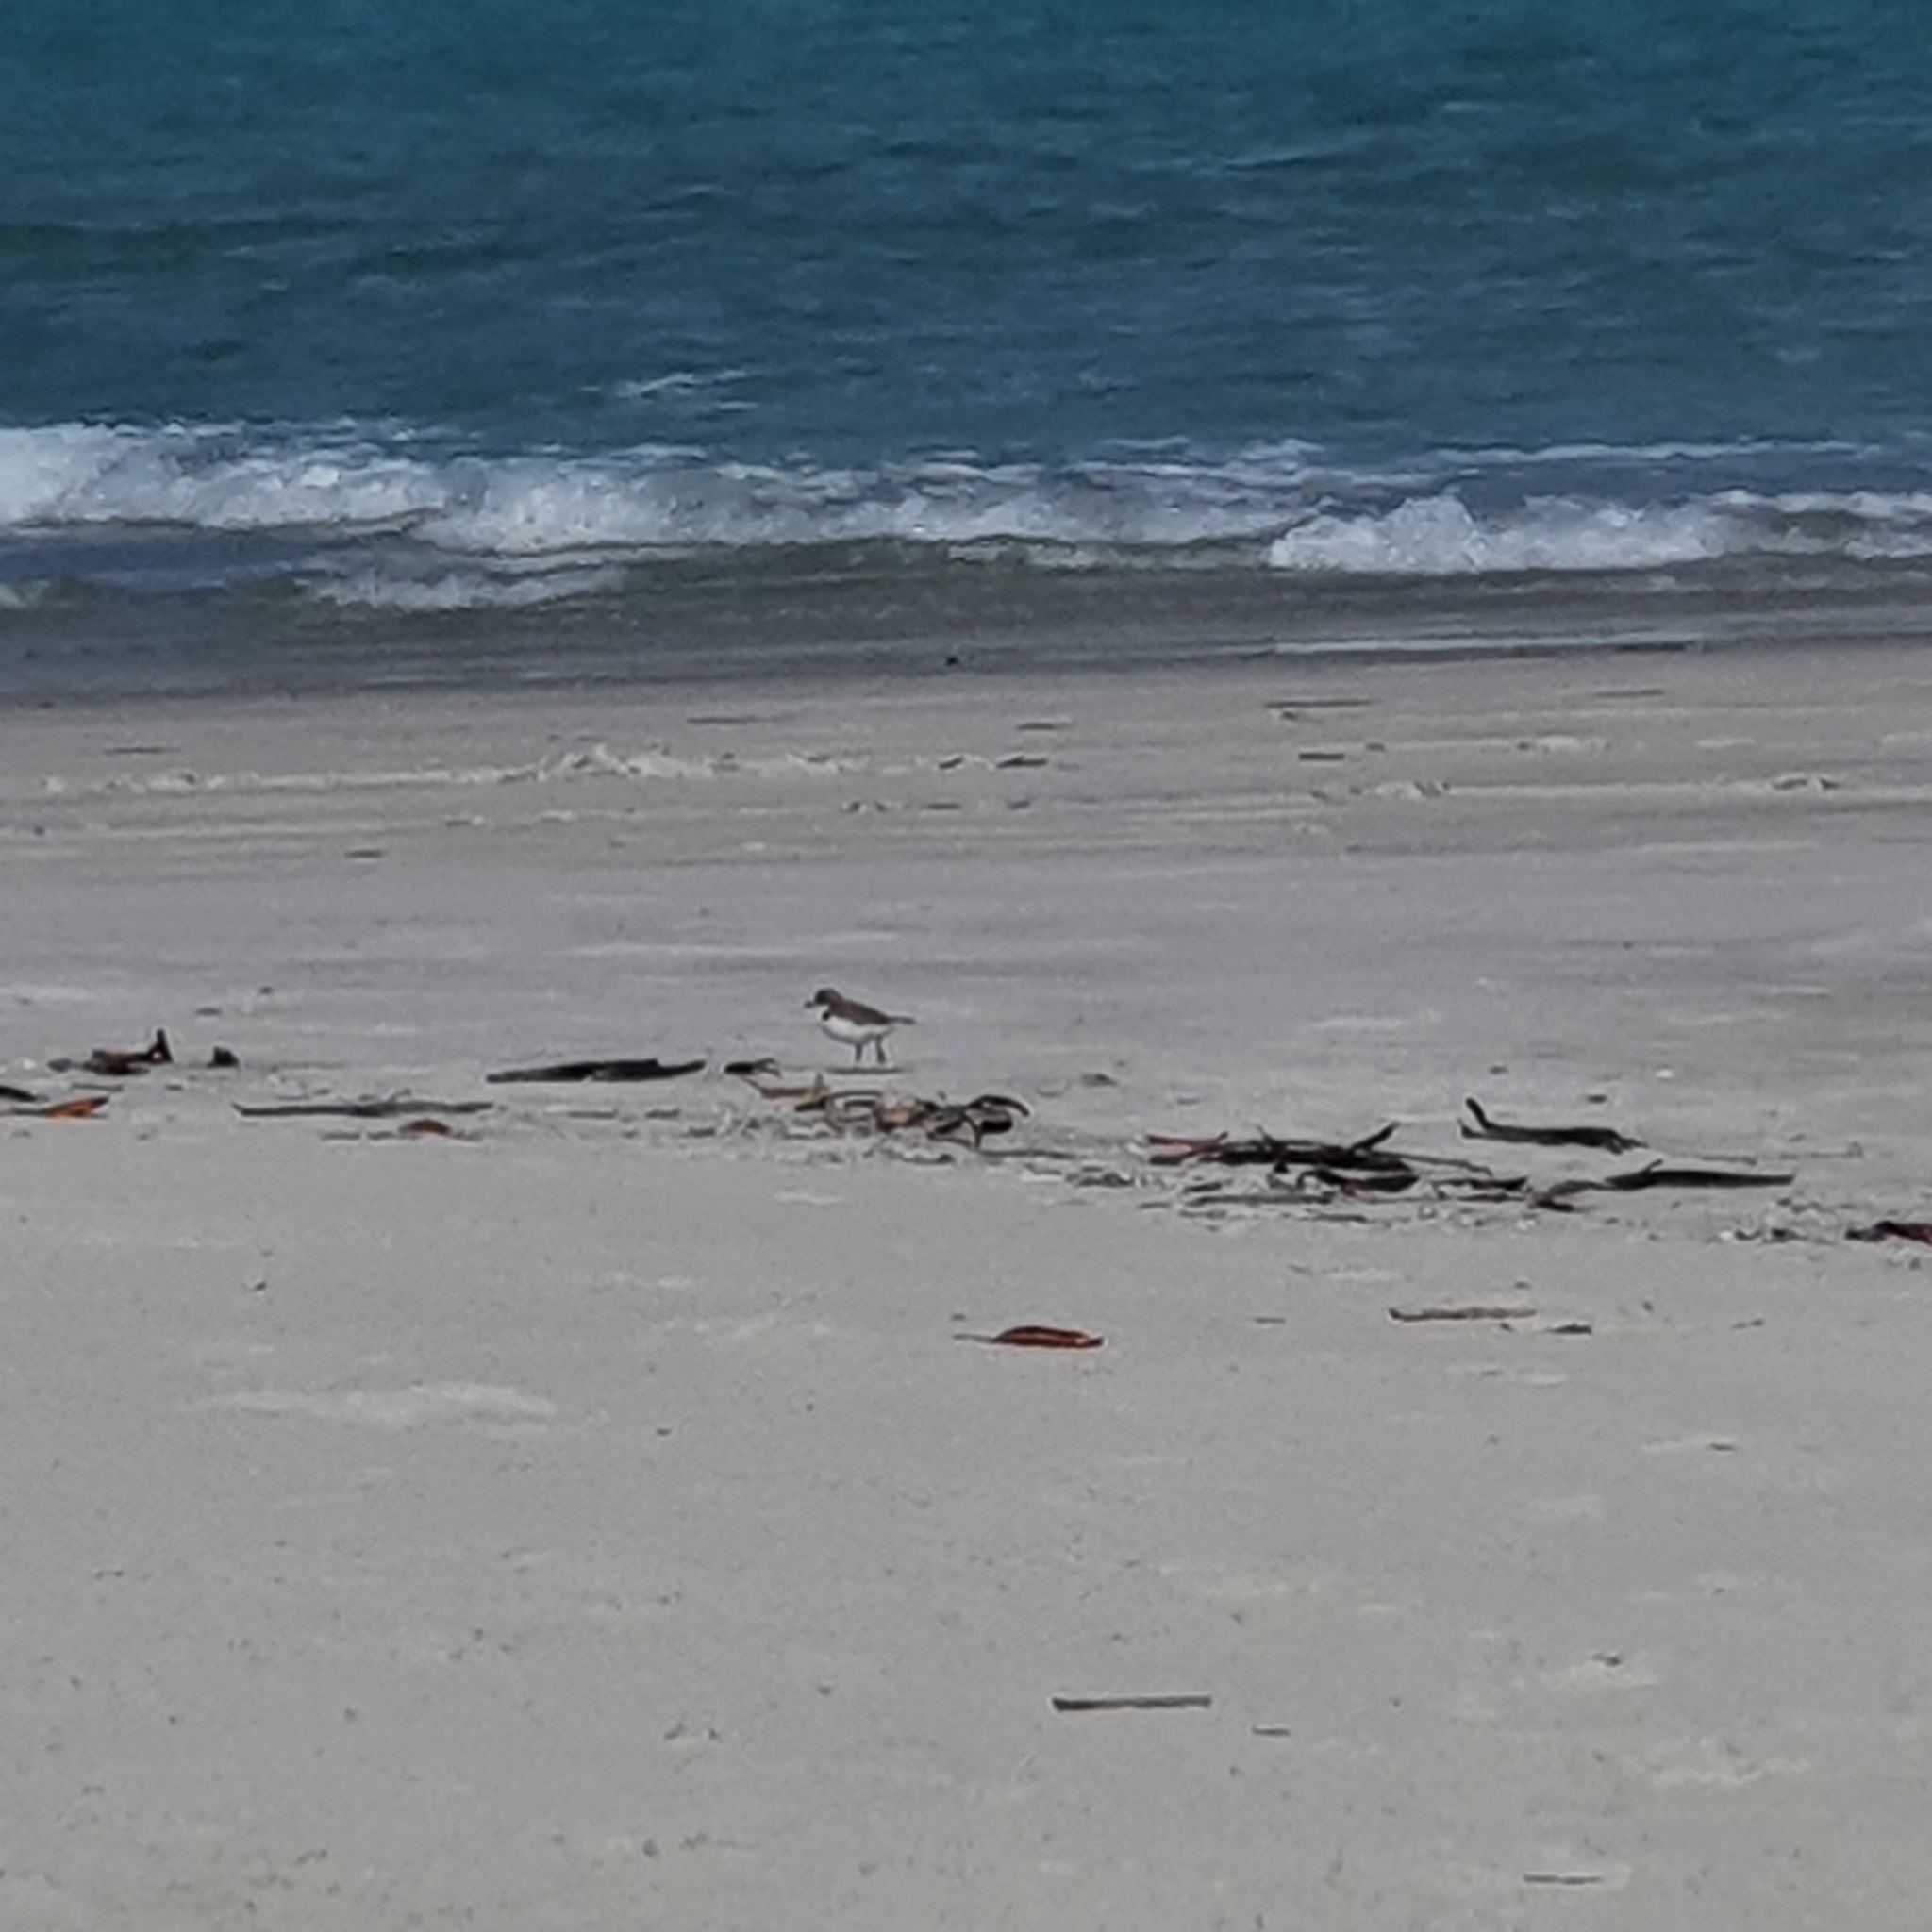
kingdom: Animalia
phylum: Chordata
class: Aves
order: Charadriiformes
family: Charadriidae
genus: Anarhynchus
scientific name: Anarhynchus
